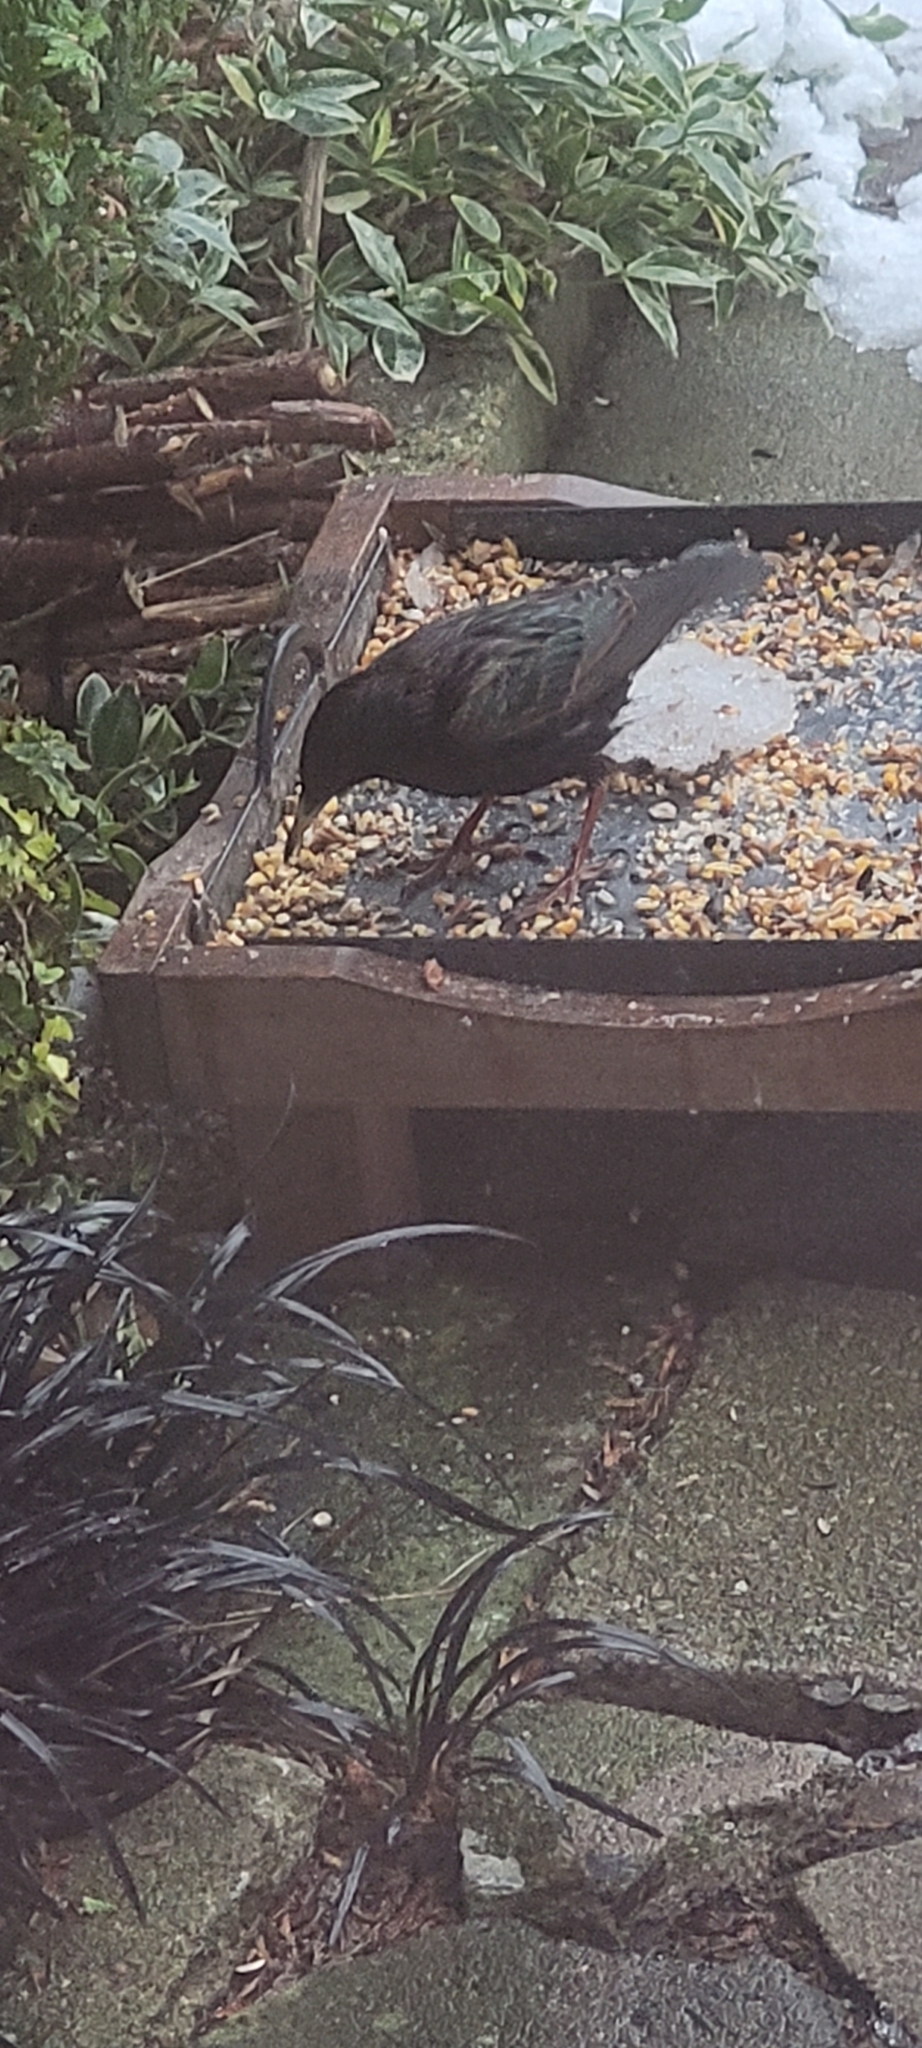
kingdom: Animalia
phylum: Chordata
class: Aves
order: Passeriformes
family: Sturnidae
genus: Sturnus
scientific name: Sturnus vulgaris
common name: Common starling
